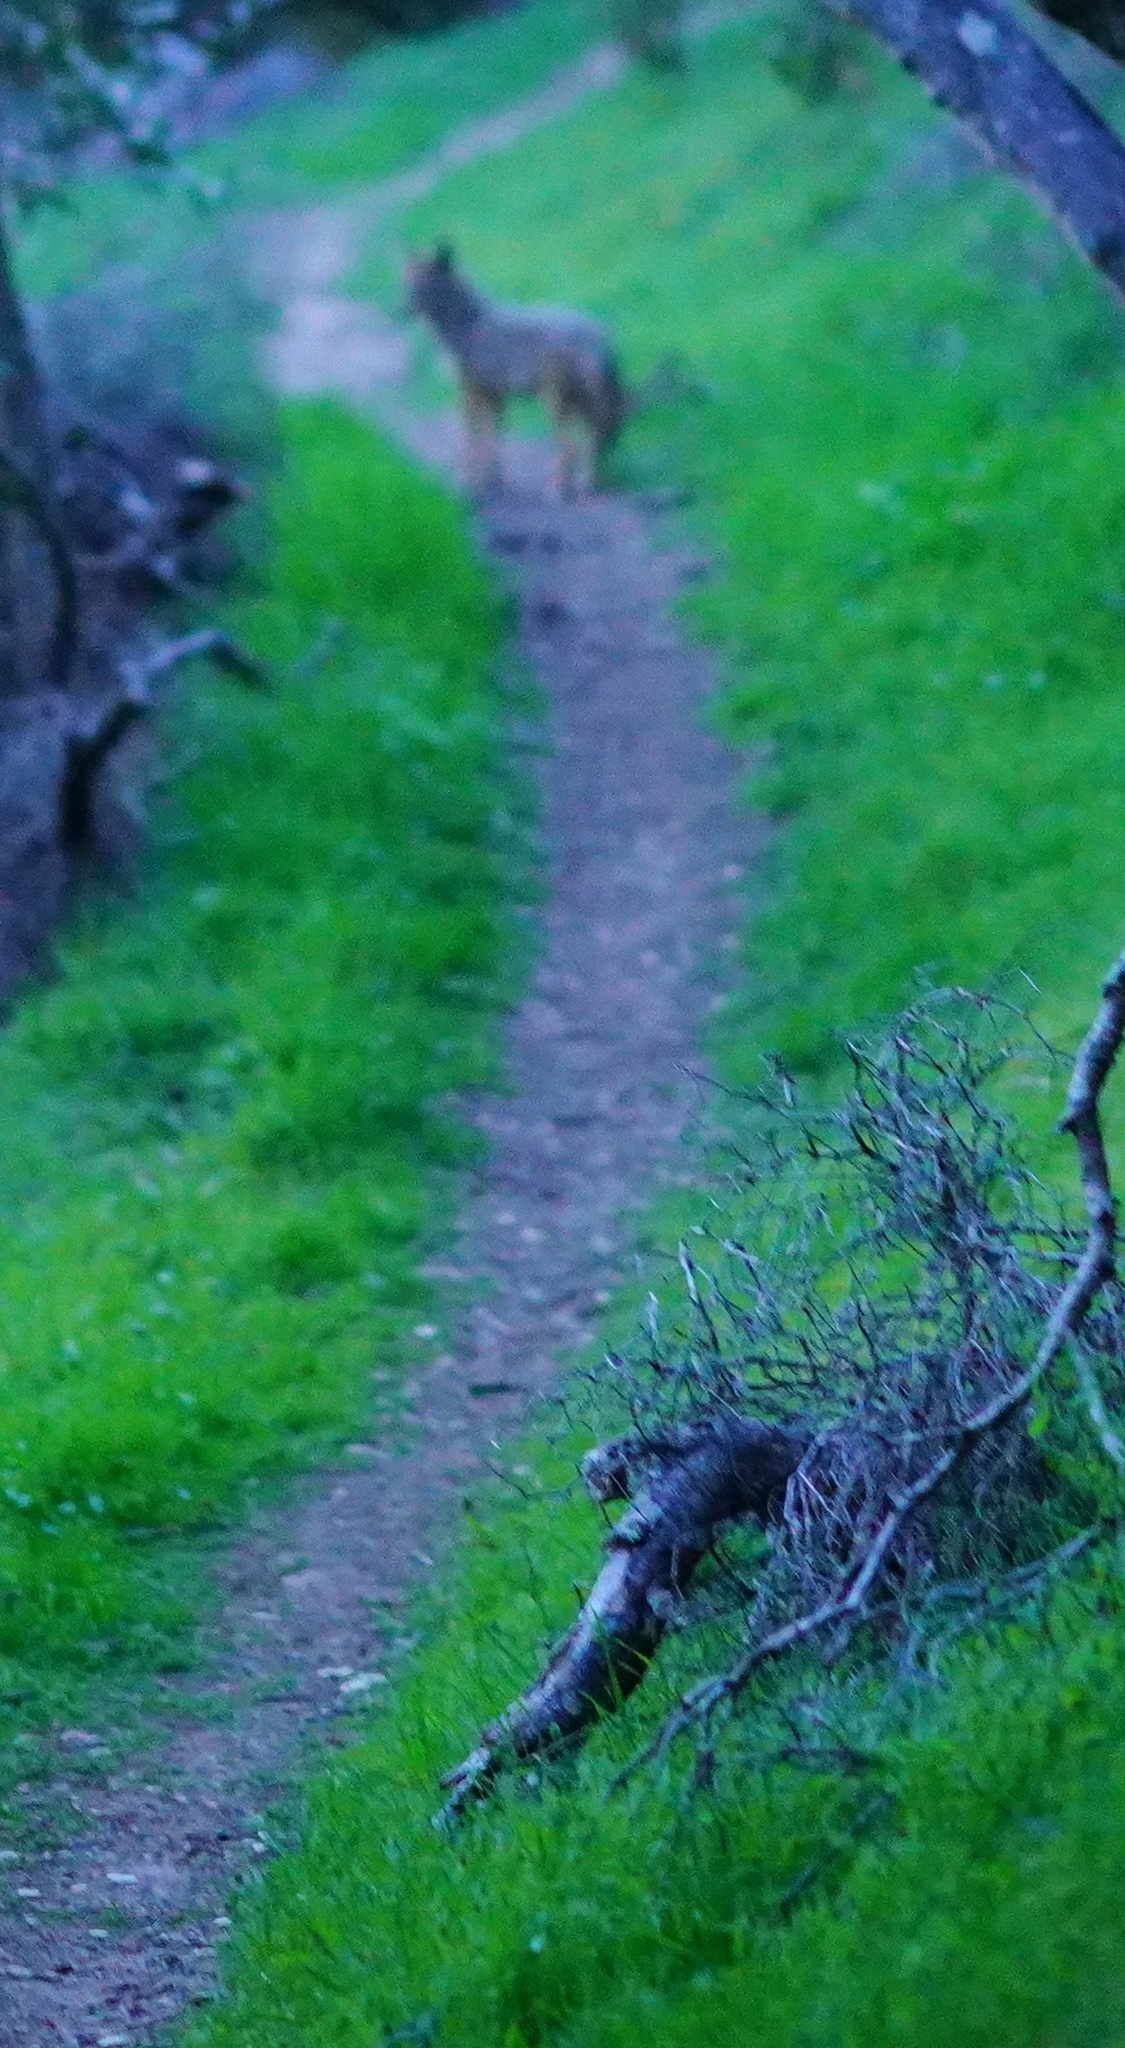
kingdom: Animalia
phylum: Chordata
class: Mammalia
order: Carnivora
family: Canidae
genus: Canis
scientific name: Canis latrans
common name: Coyote
